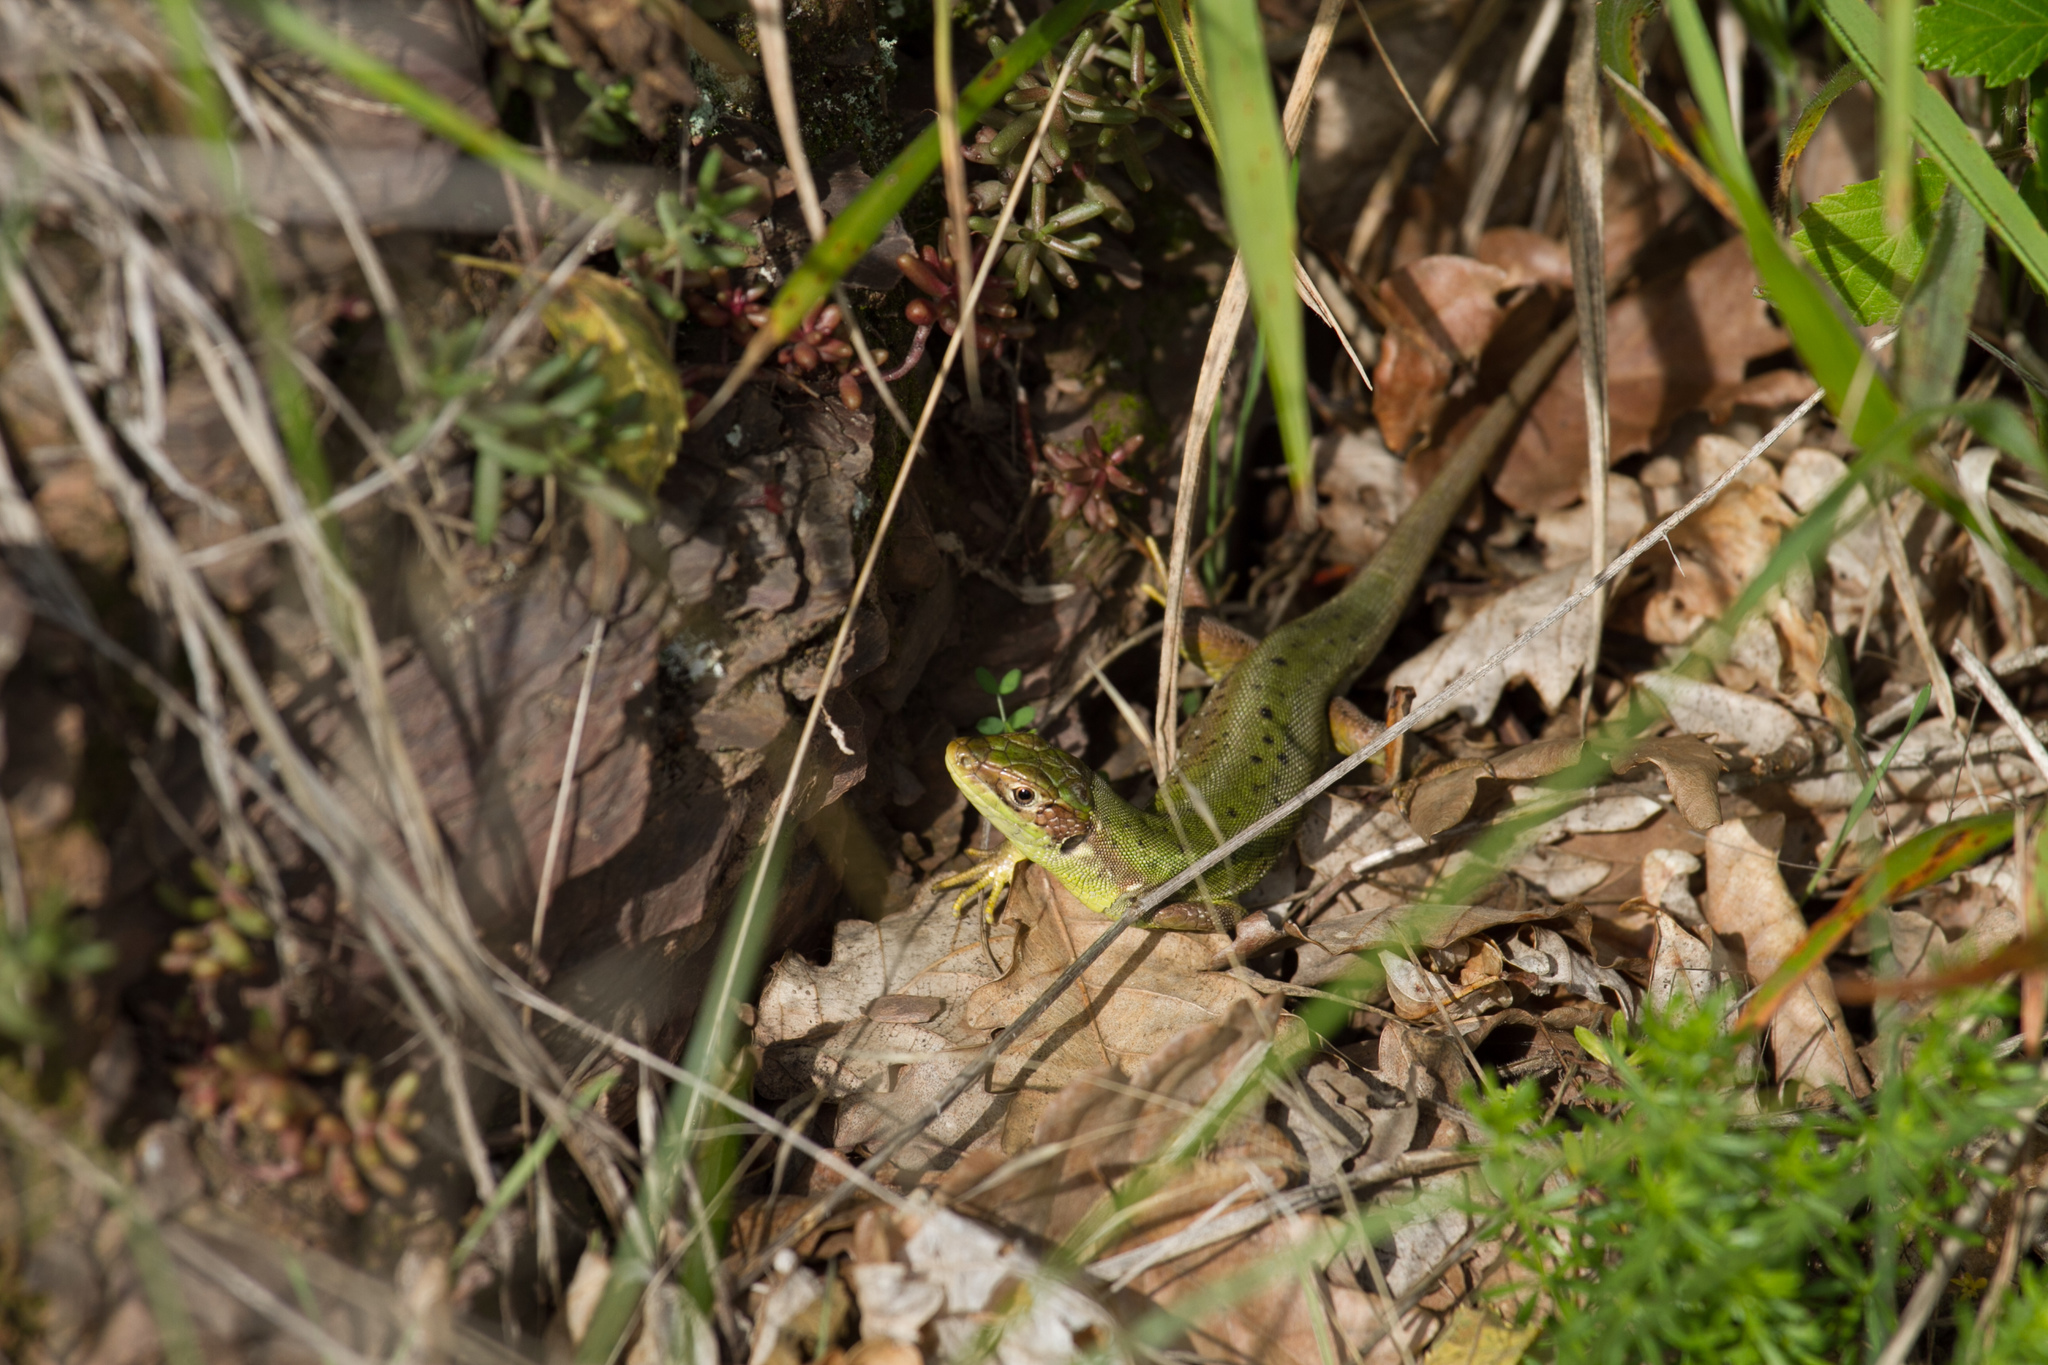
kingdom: Animalia
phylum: Chordata
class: Squamata
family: Lacertidae
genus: Lacerta
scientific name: Lacerta bilineata
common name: Western green lizard
